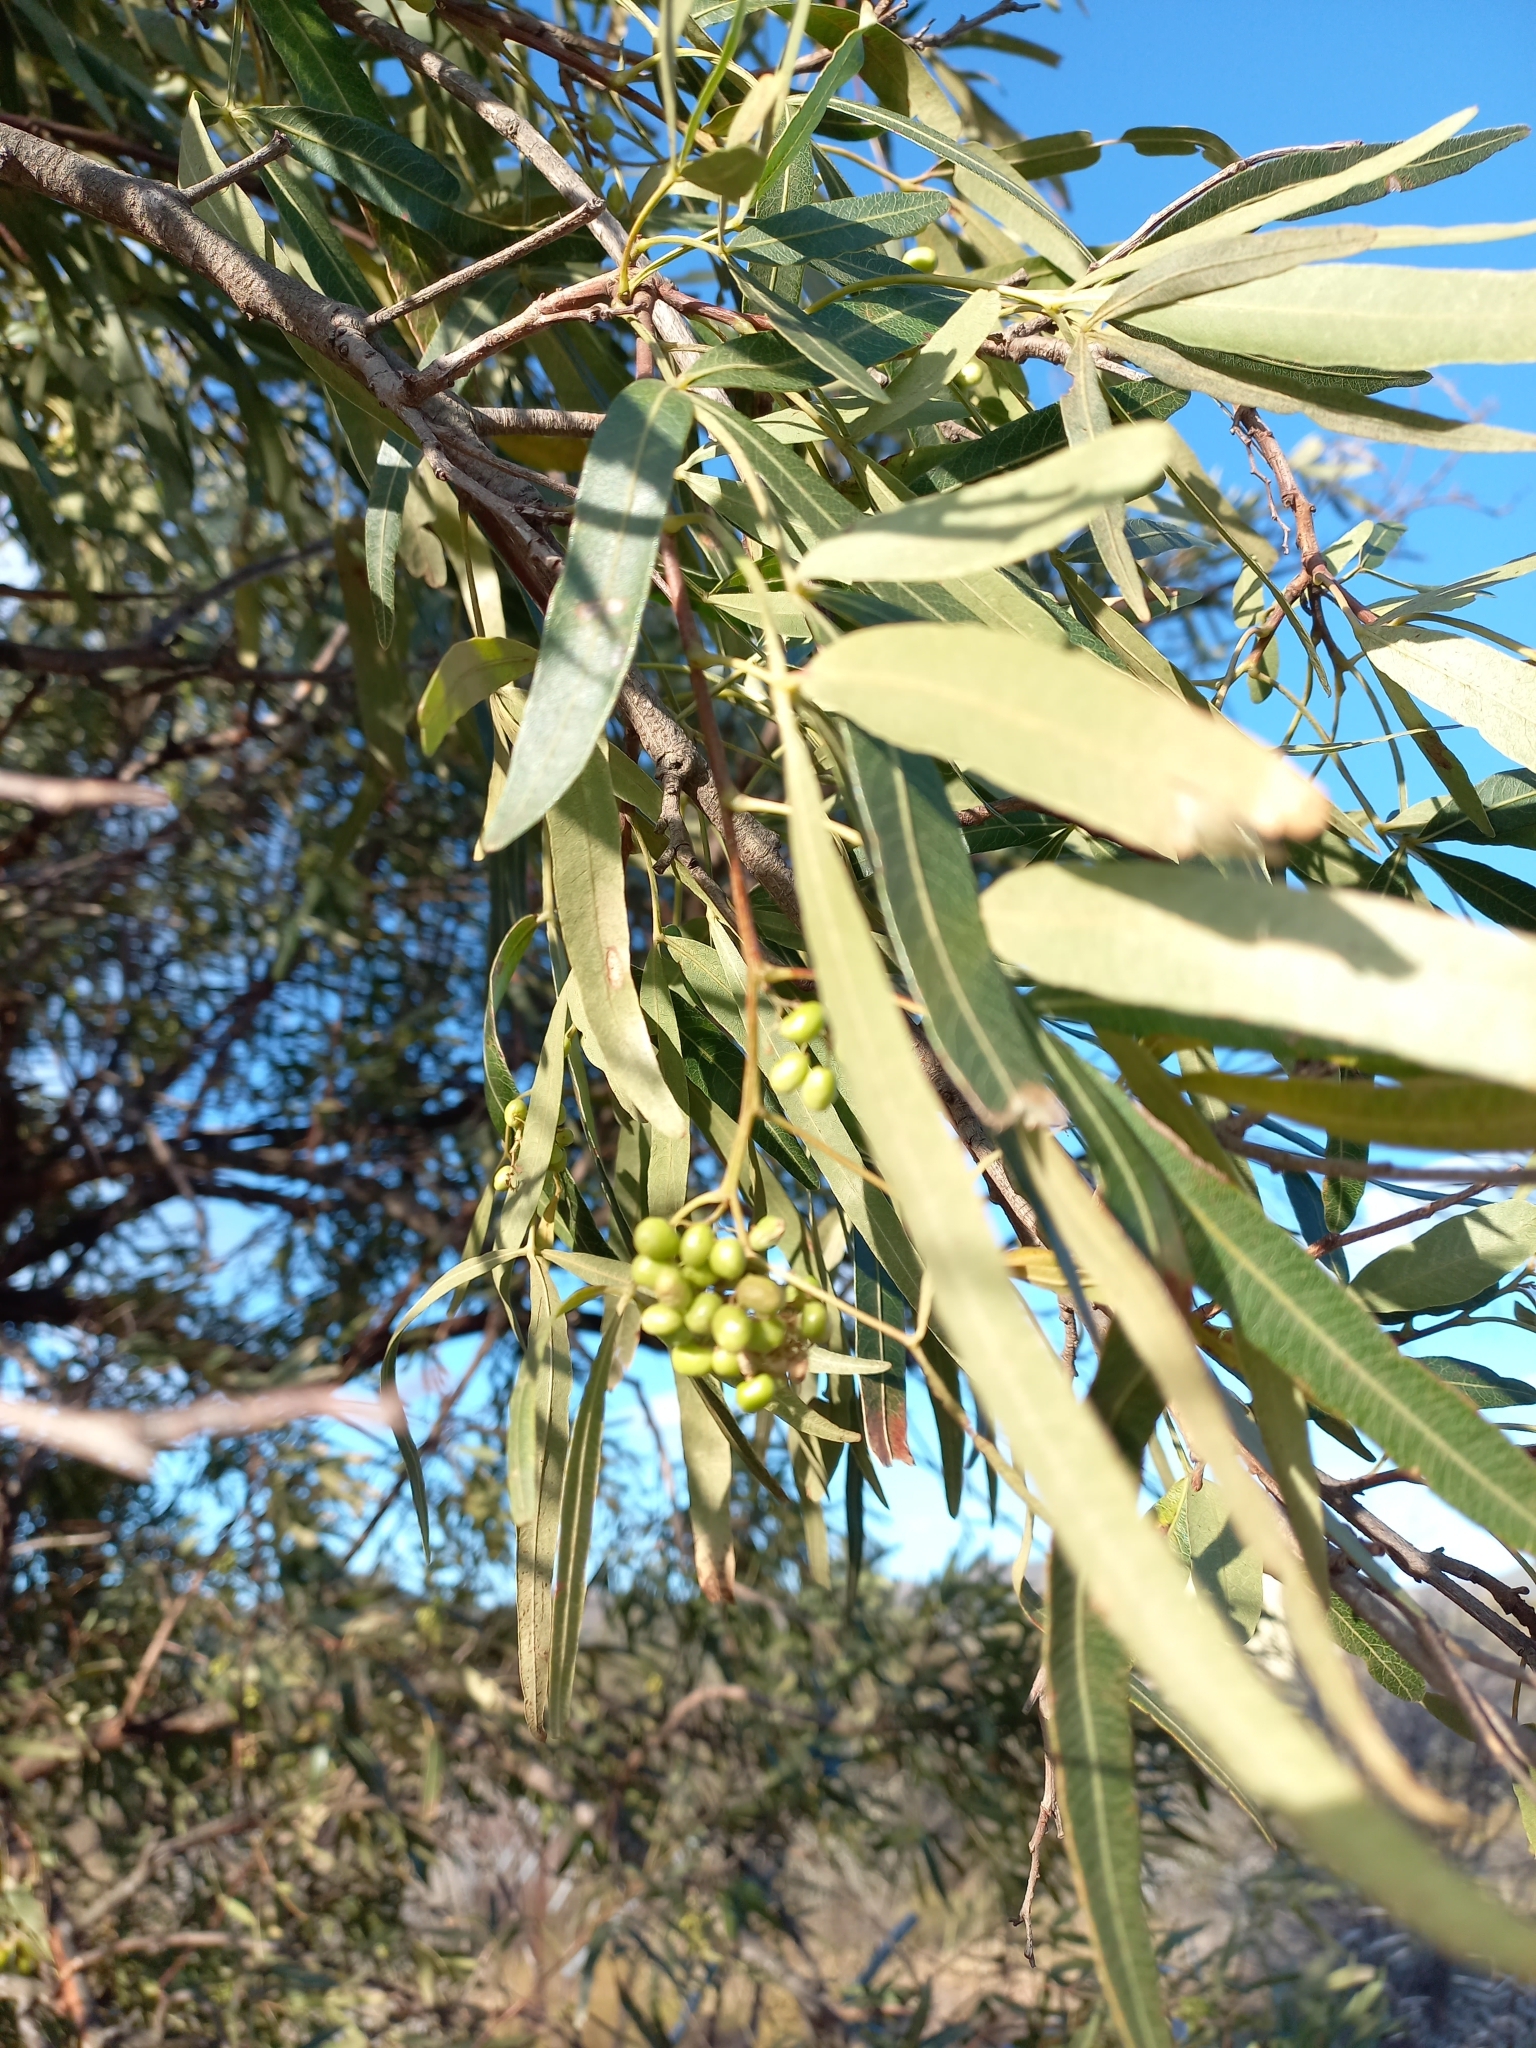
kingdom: Plantae
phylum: Tracheophyta
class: Magnoliopsida
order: Sapindales
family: Anacardiaceae
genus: Searsia
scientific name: Searsia lancea
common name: Cashew
